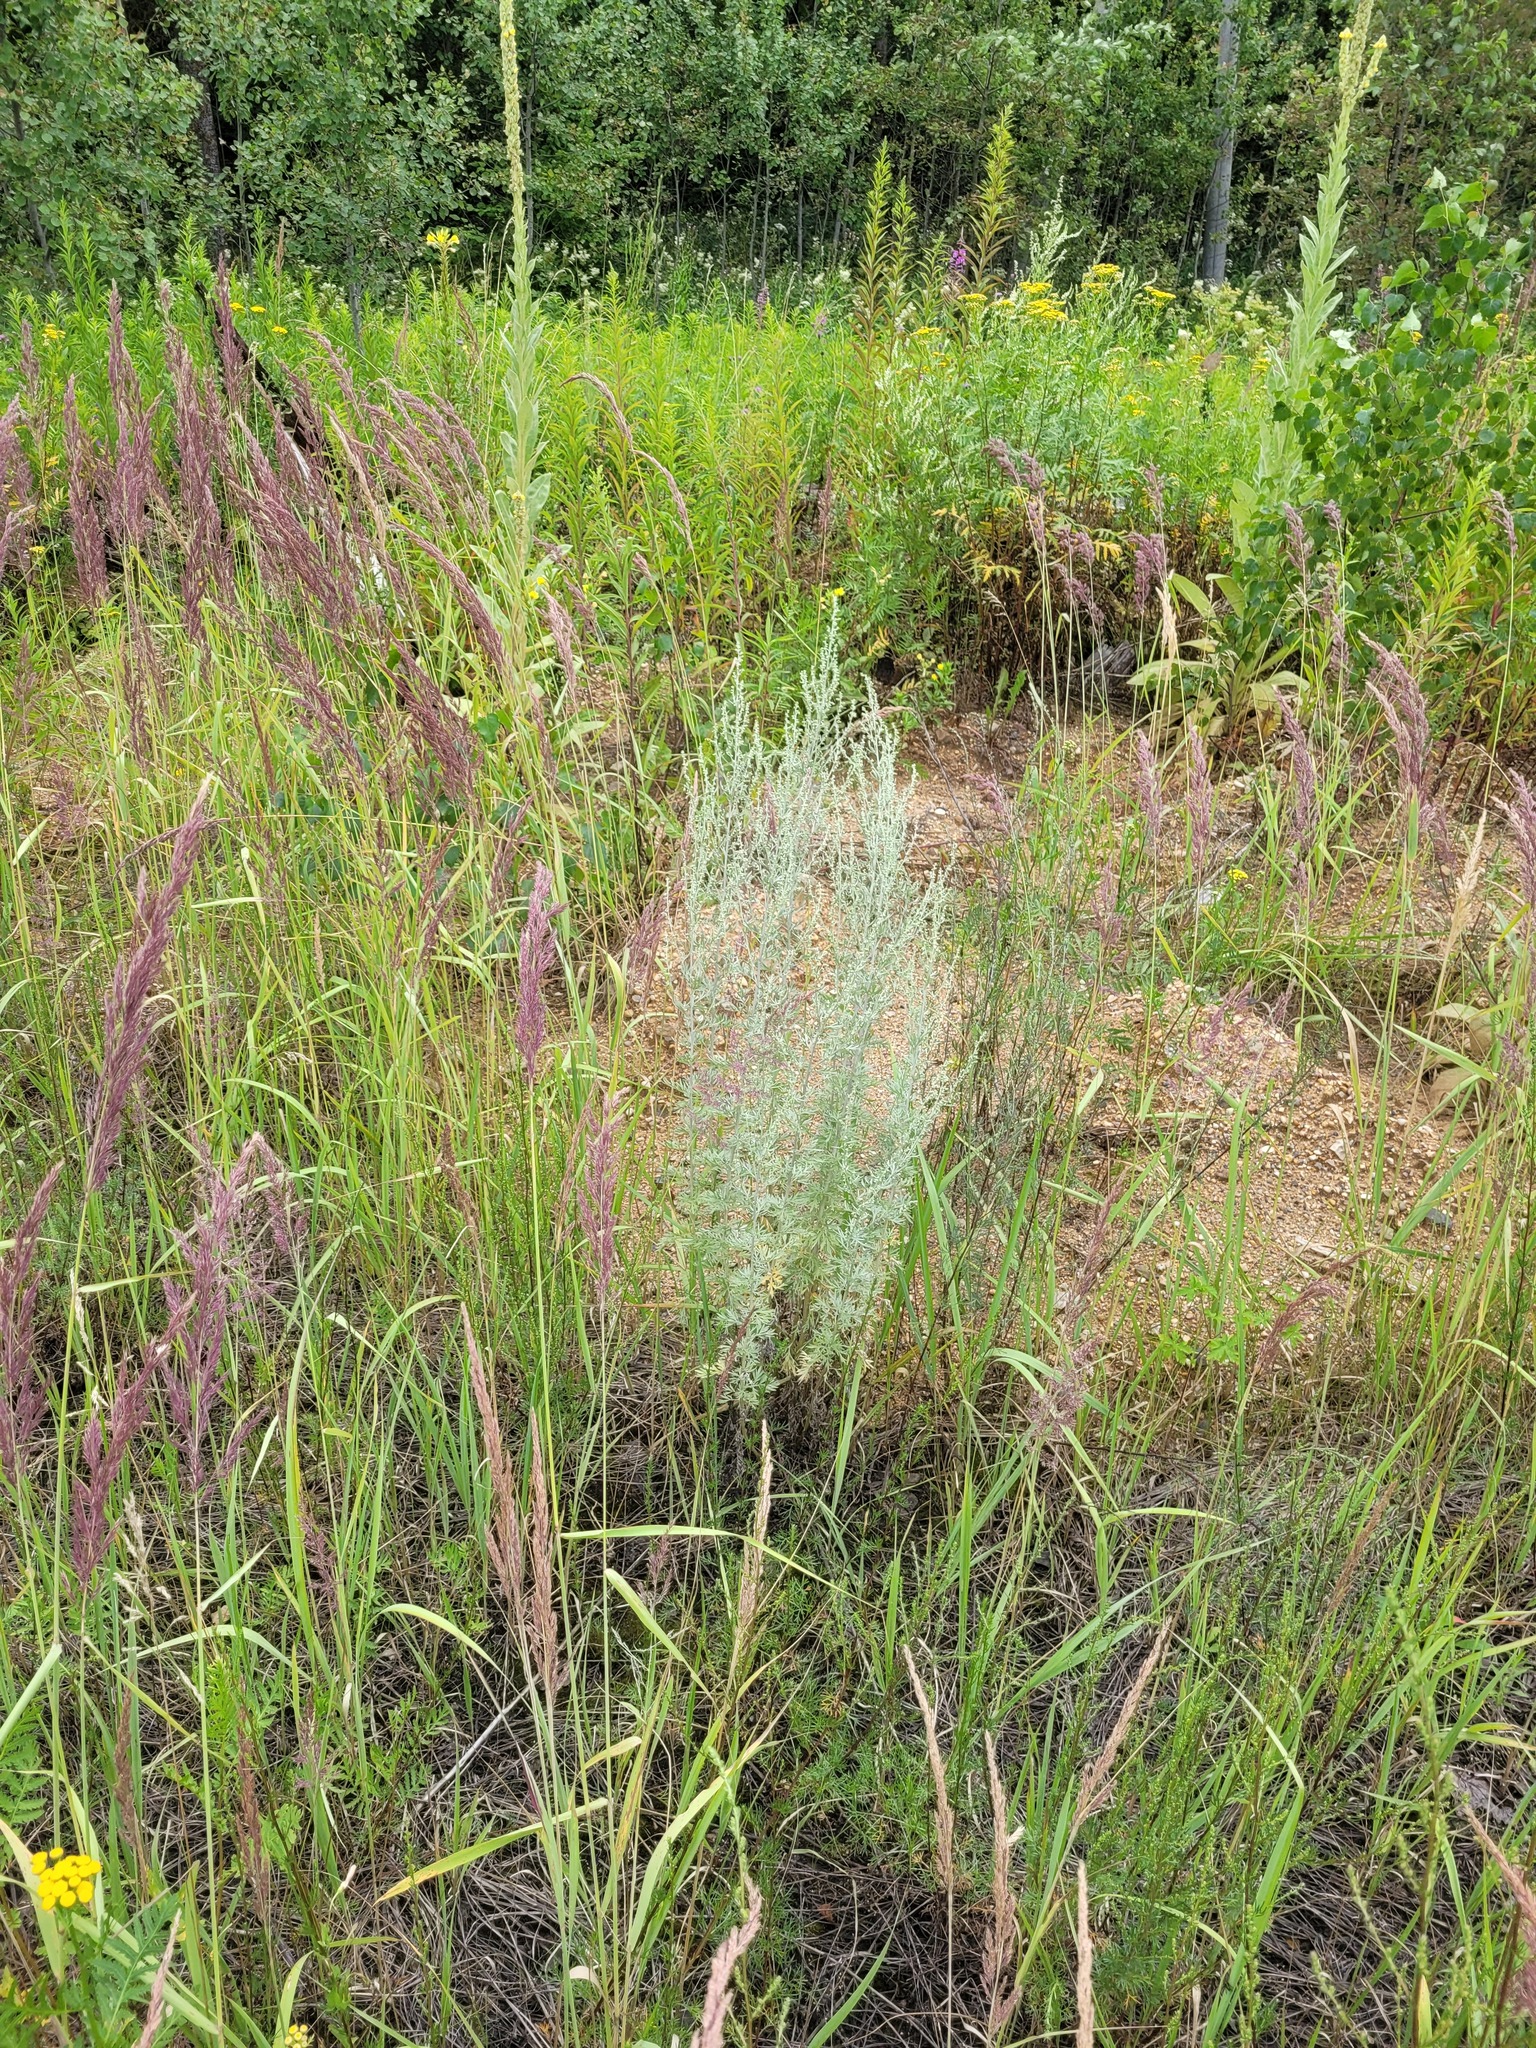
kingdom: Plantae
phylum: Tracheophyta
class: Magnoliopsida
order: Asterales
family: Asteraceae
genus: Artemisia
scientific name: Artemisia absinthium
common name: Wormwood
